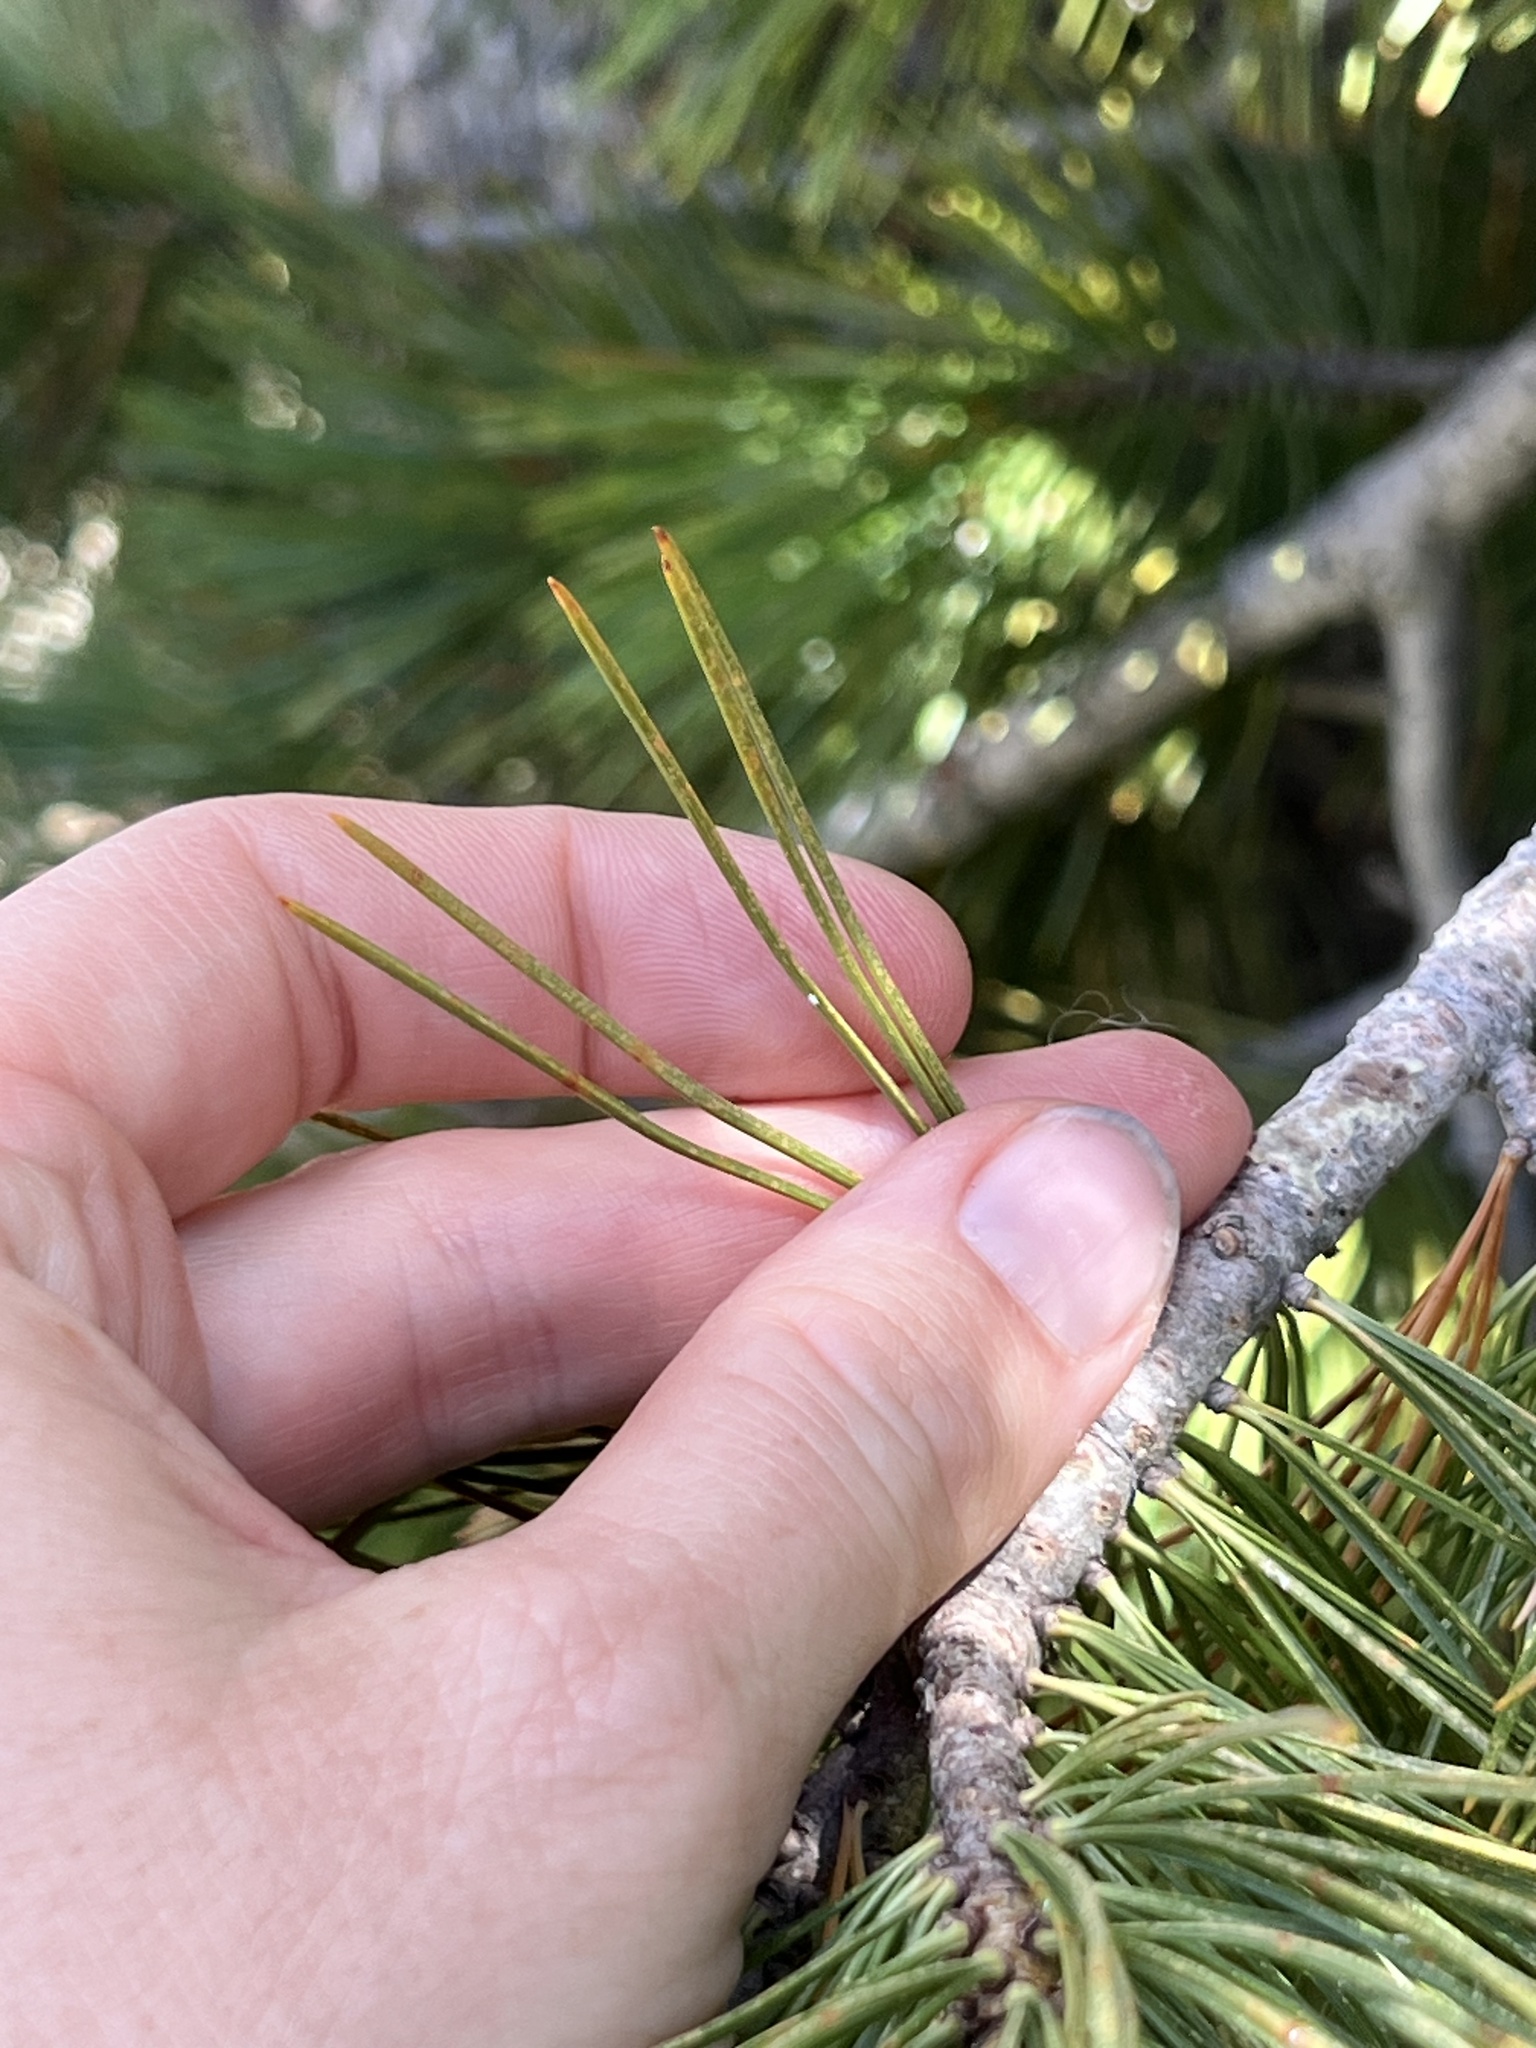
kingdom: Plantae
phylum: Tracheophyta
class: Pinopsida
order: Pinales
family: Pinaceae
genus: Pinus
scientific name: Pinus albicaulis
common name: Whitebark pine
